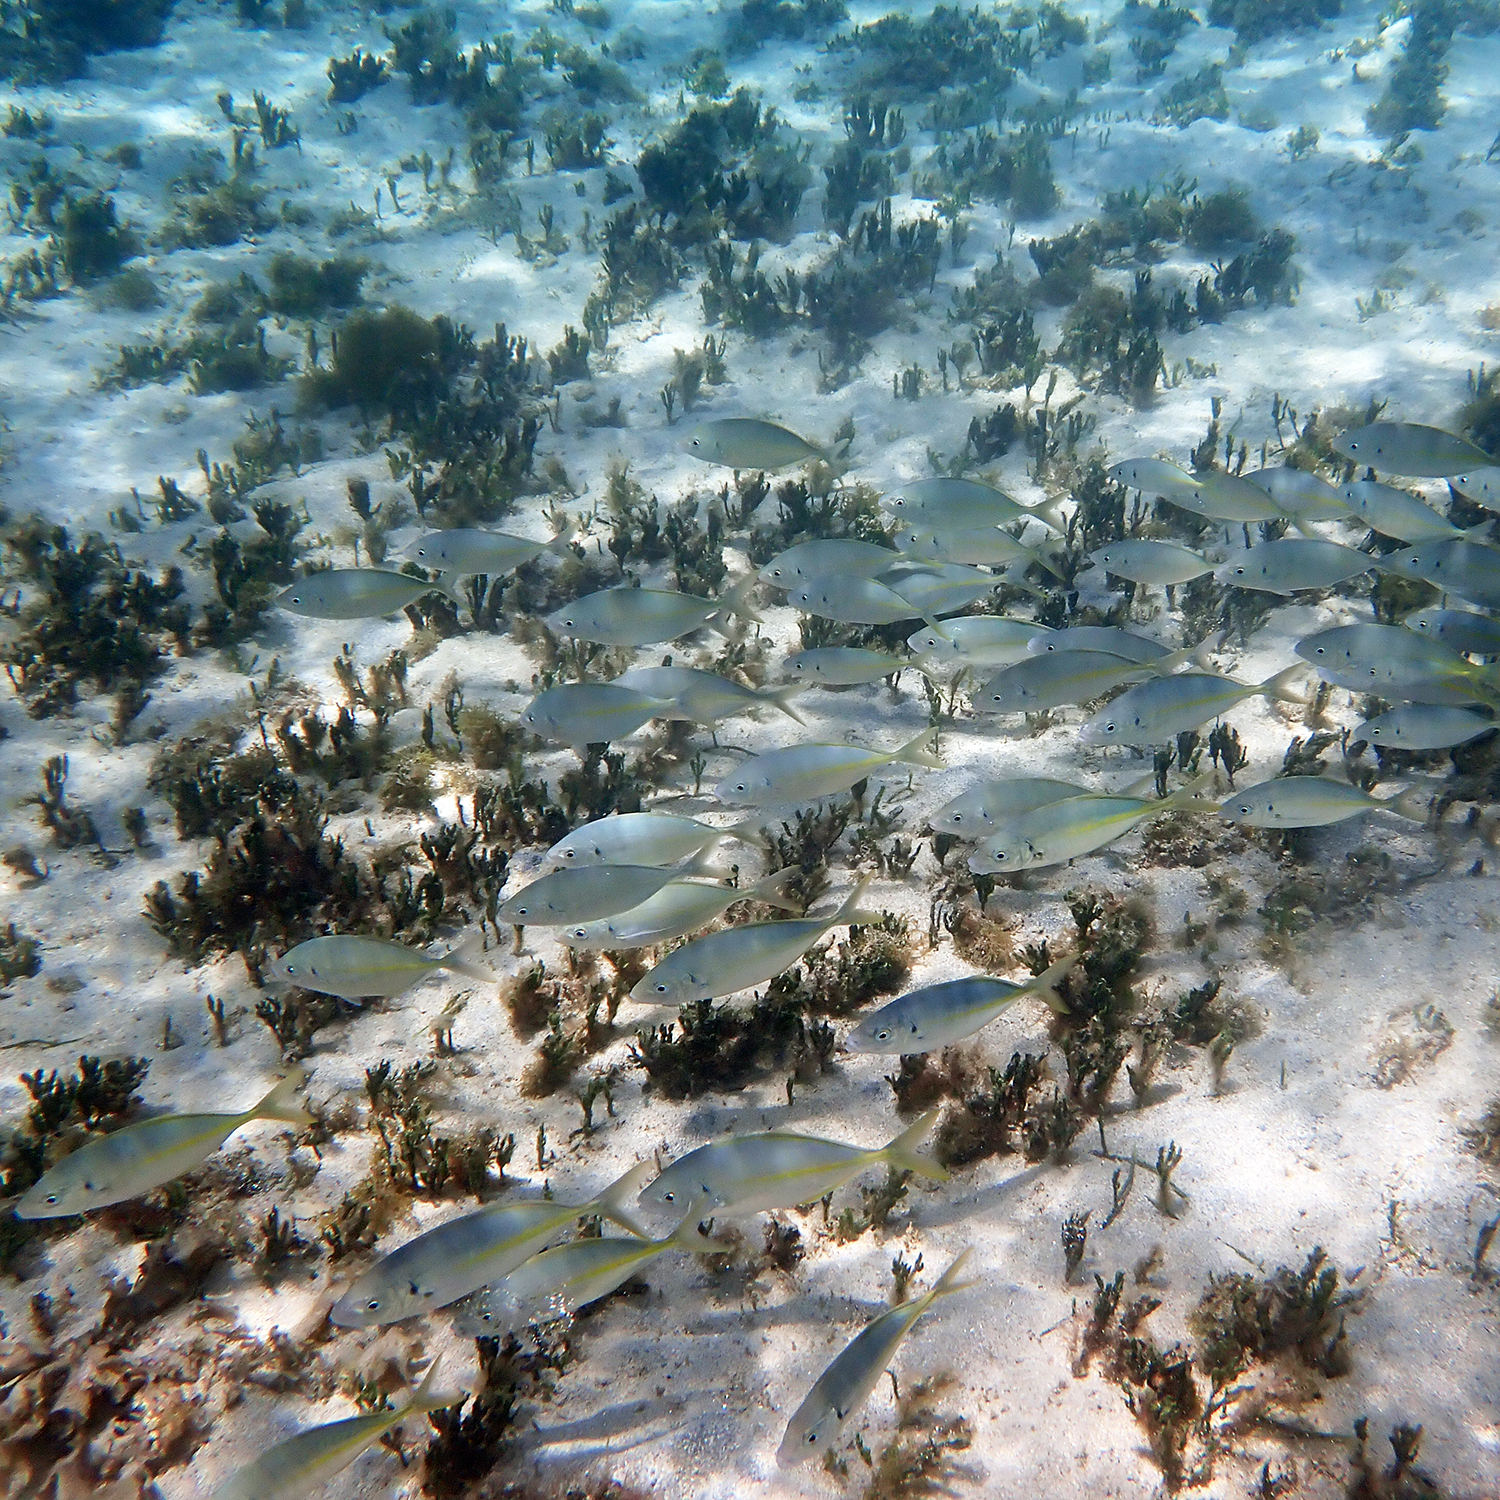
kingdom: Animalia
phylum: Chordata
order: Perciformes
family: Carangidae
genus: Pseudocaranx
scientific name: Pseudocaranx dentex
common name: White trevally
